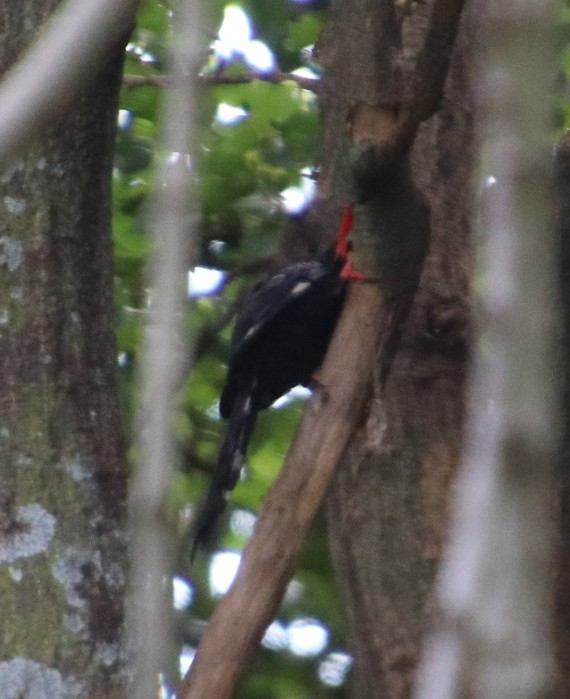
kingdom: Animalia
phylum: Chordata
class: Aves
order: Bucerotiformes
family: Phoeniculidae
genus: Phoeniculus
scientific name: Phoeniculus purpureus
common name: Green woodhoopoe
